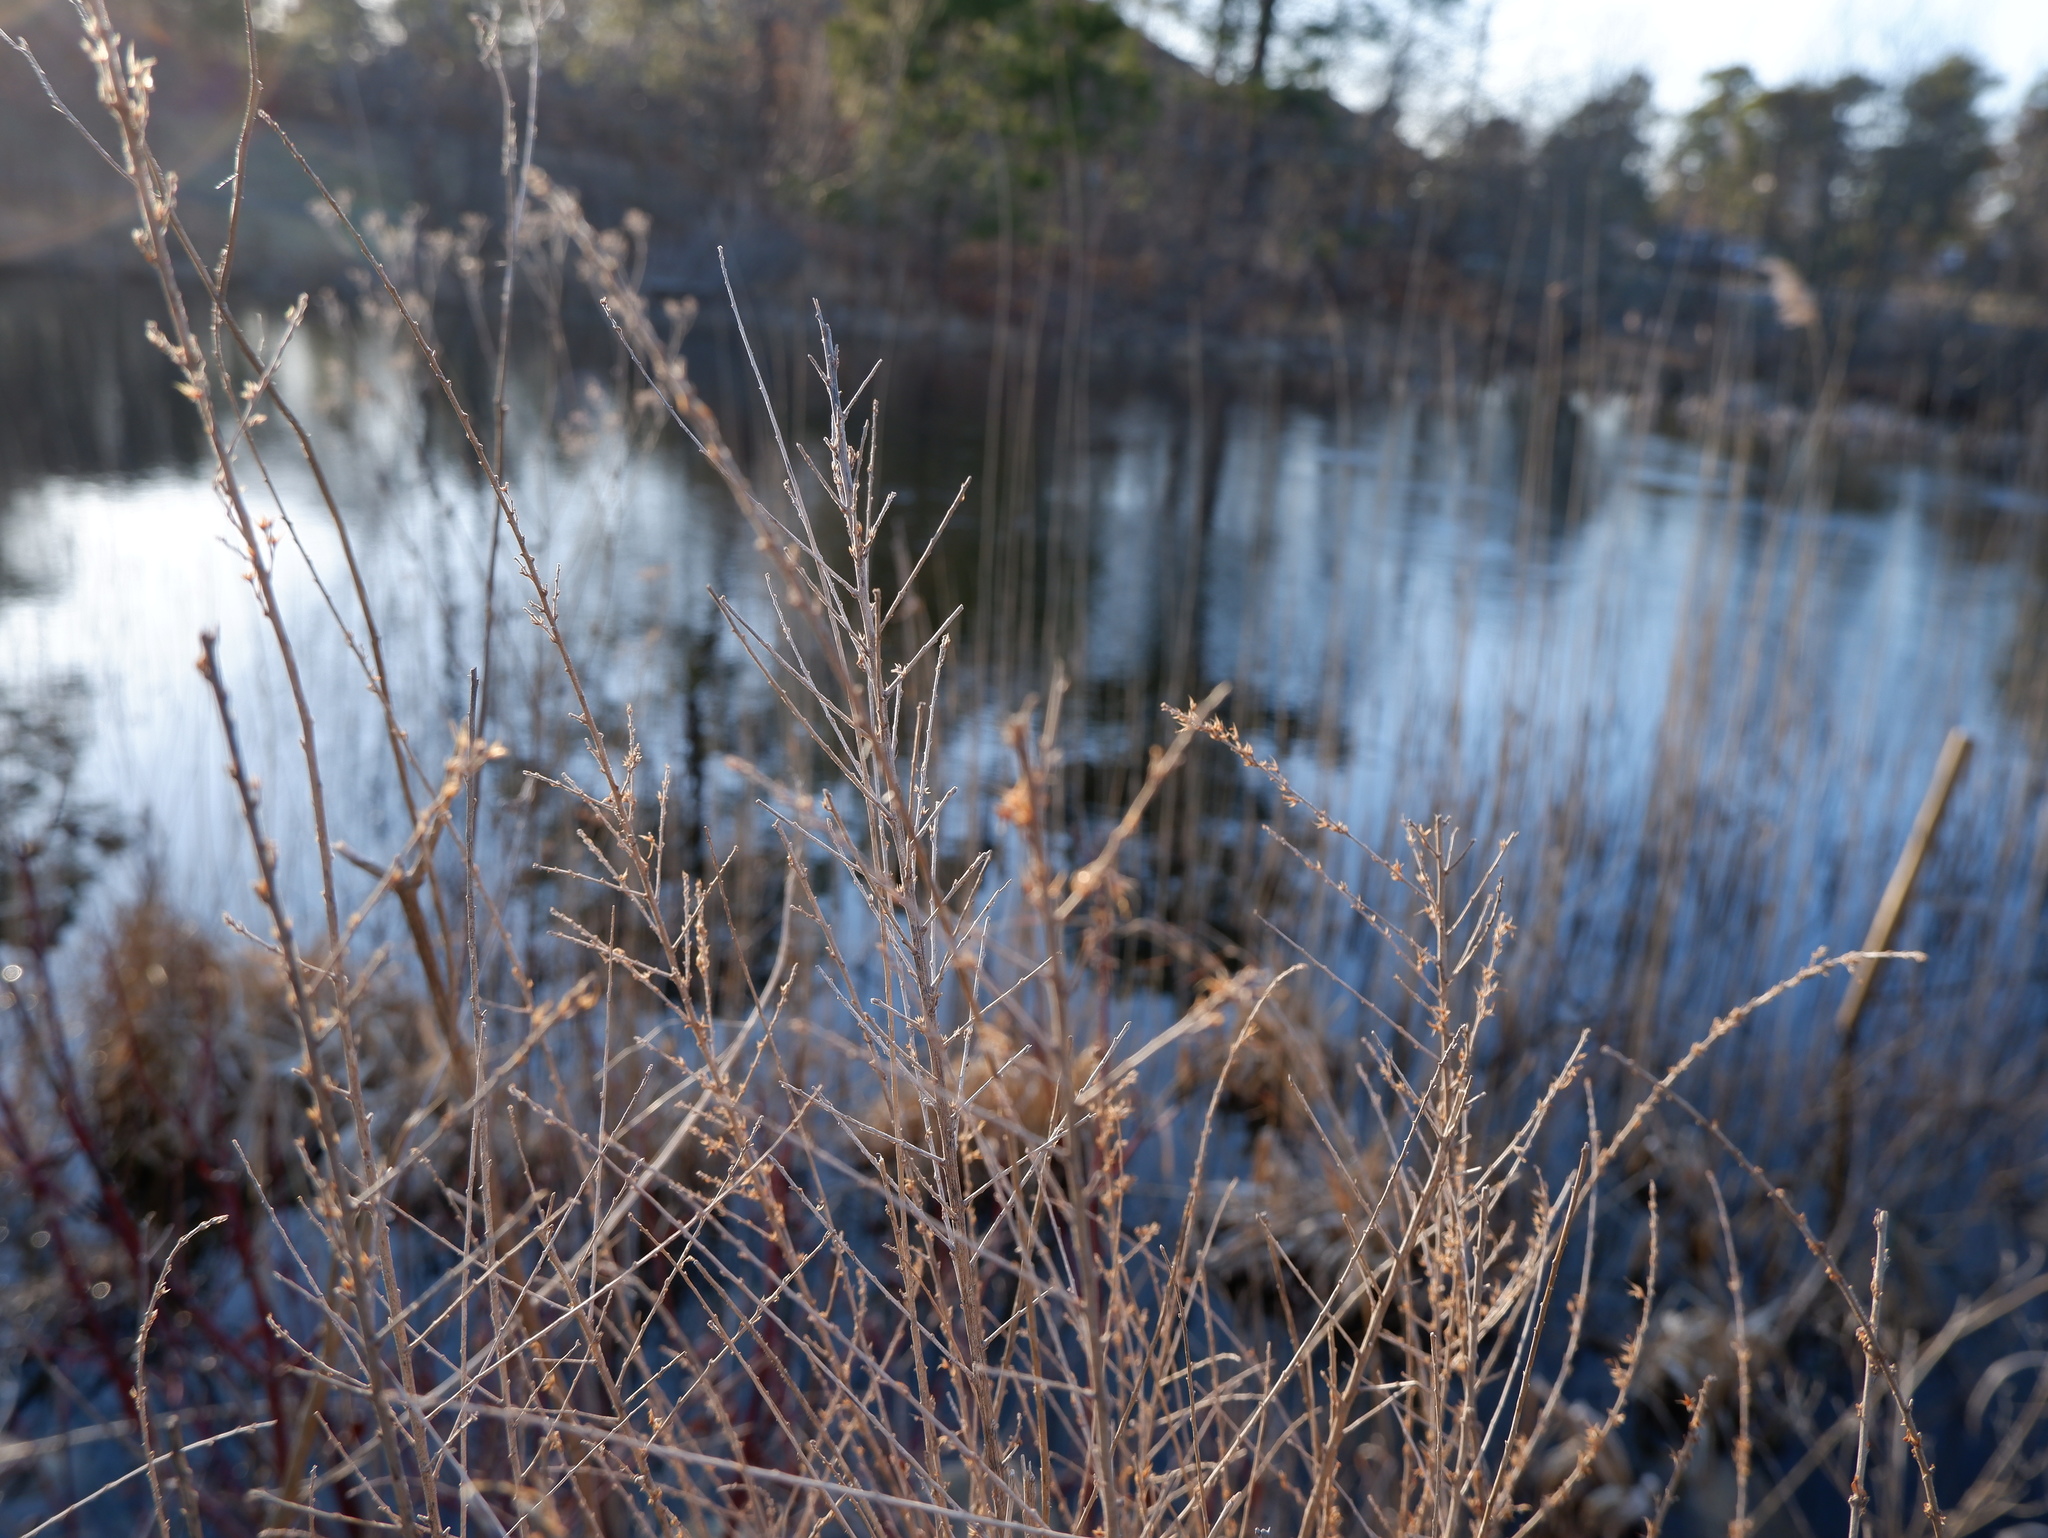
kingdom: Plantae
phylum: Tracheophyta
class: Magnoliopsida
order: Fabales
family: Fabaceae
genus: Lespedeza
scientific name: Lespedeza cuneata
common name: Chinese bush-clover
